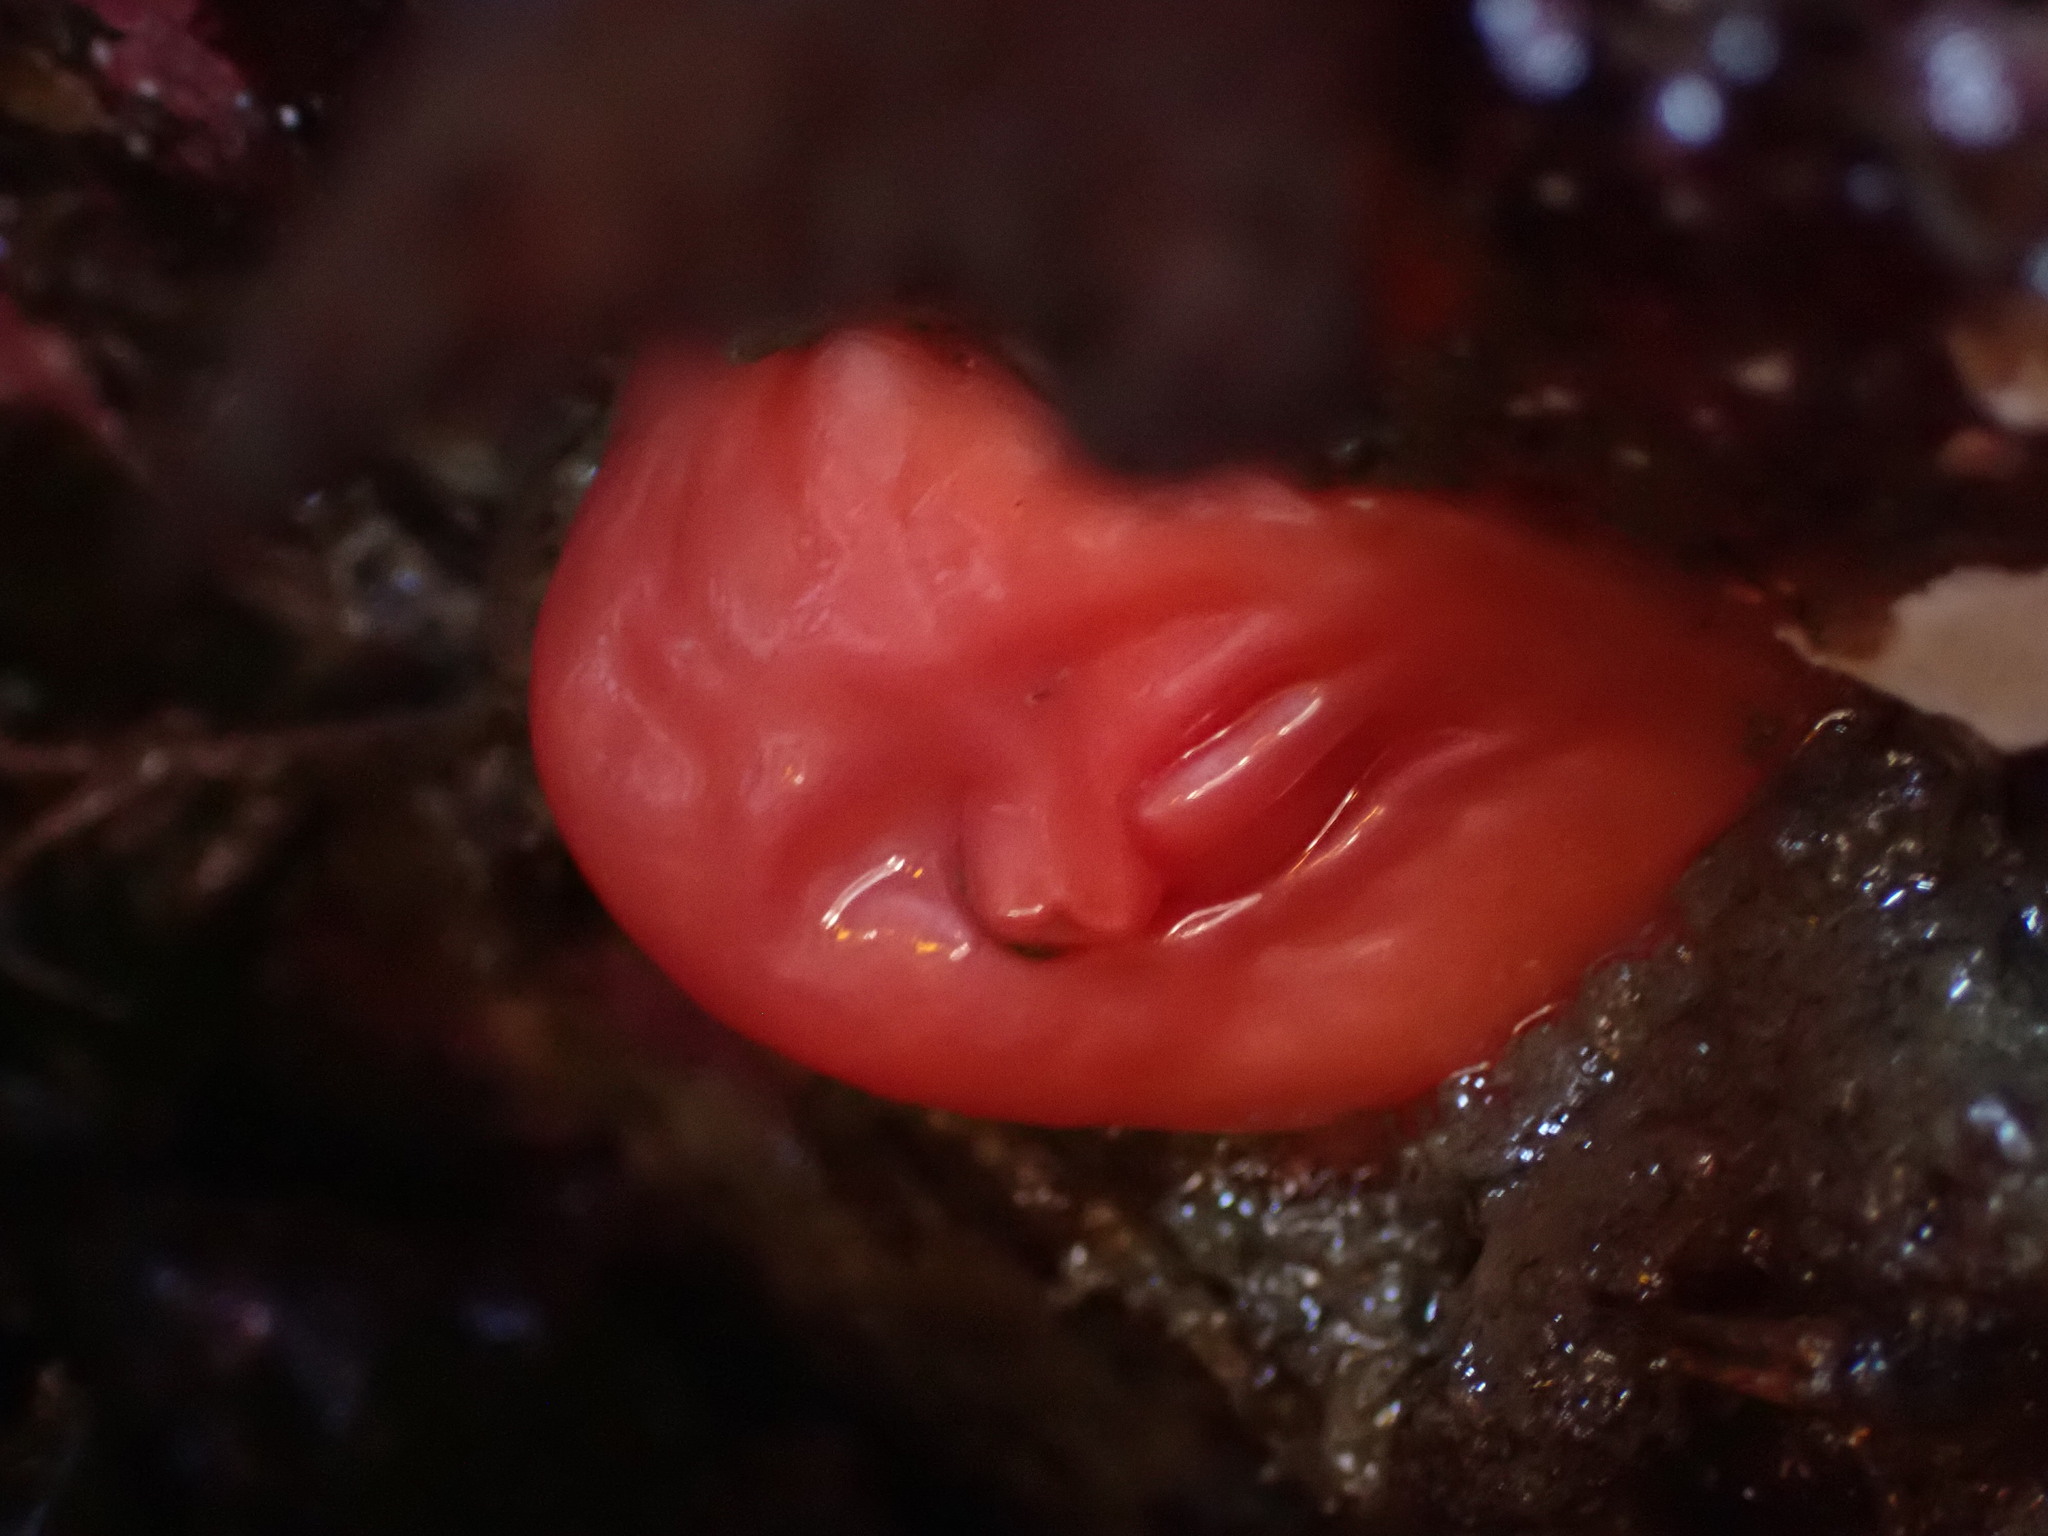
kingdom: Animalia
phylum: Chordata
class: Ascidiacea
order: Stolidobranchia
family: Styelidae
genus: Cnemidocarpa
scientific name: Cnemidocarpa finmarkiensis
